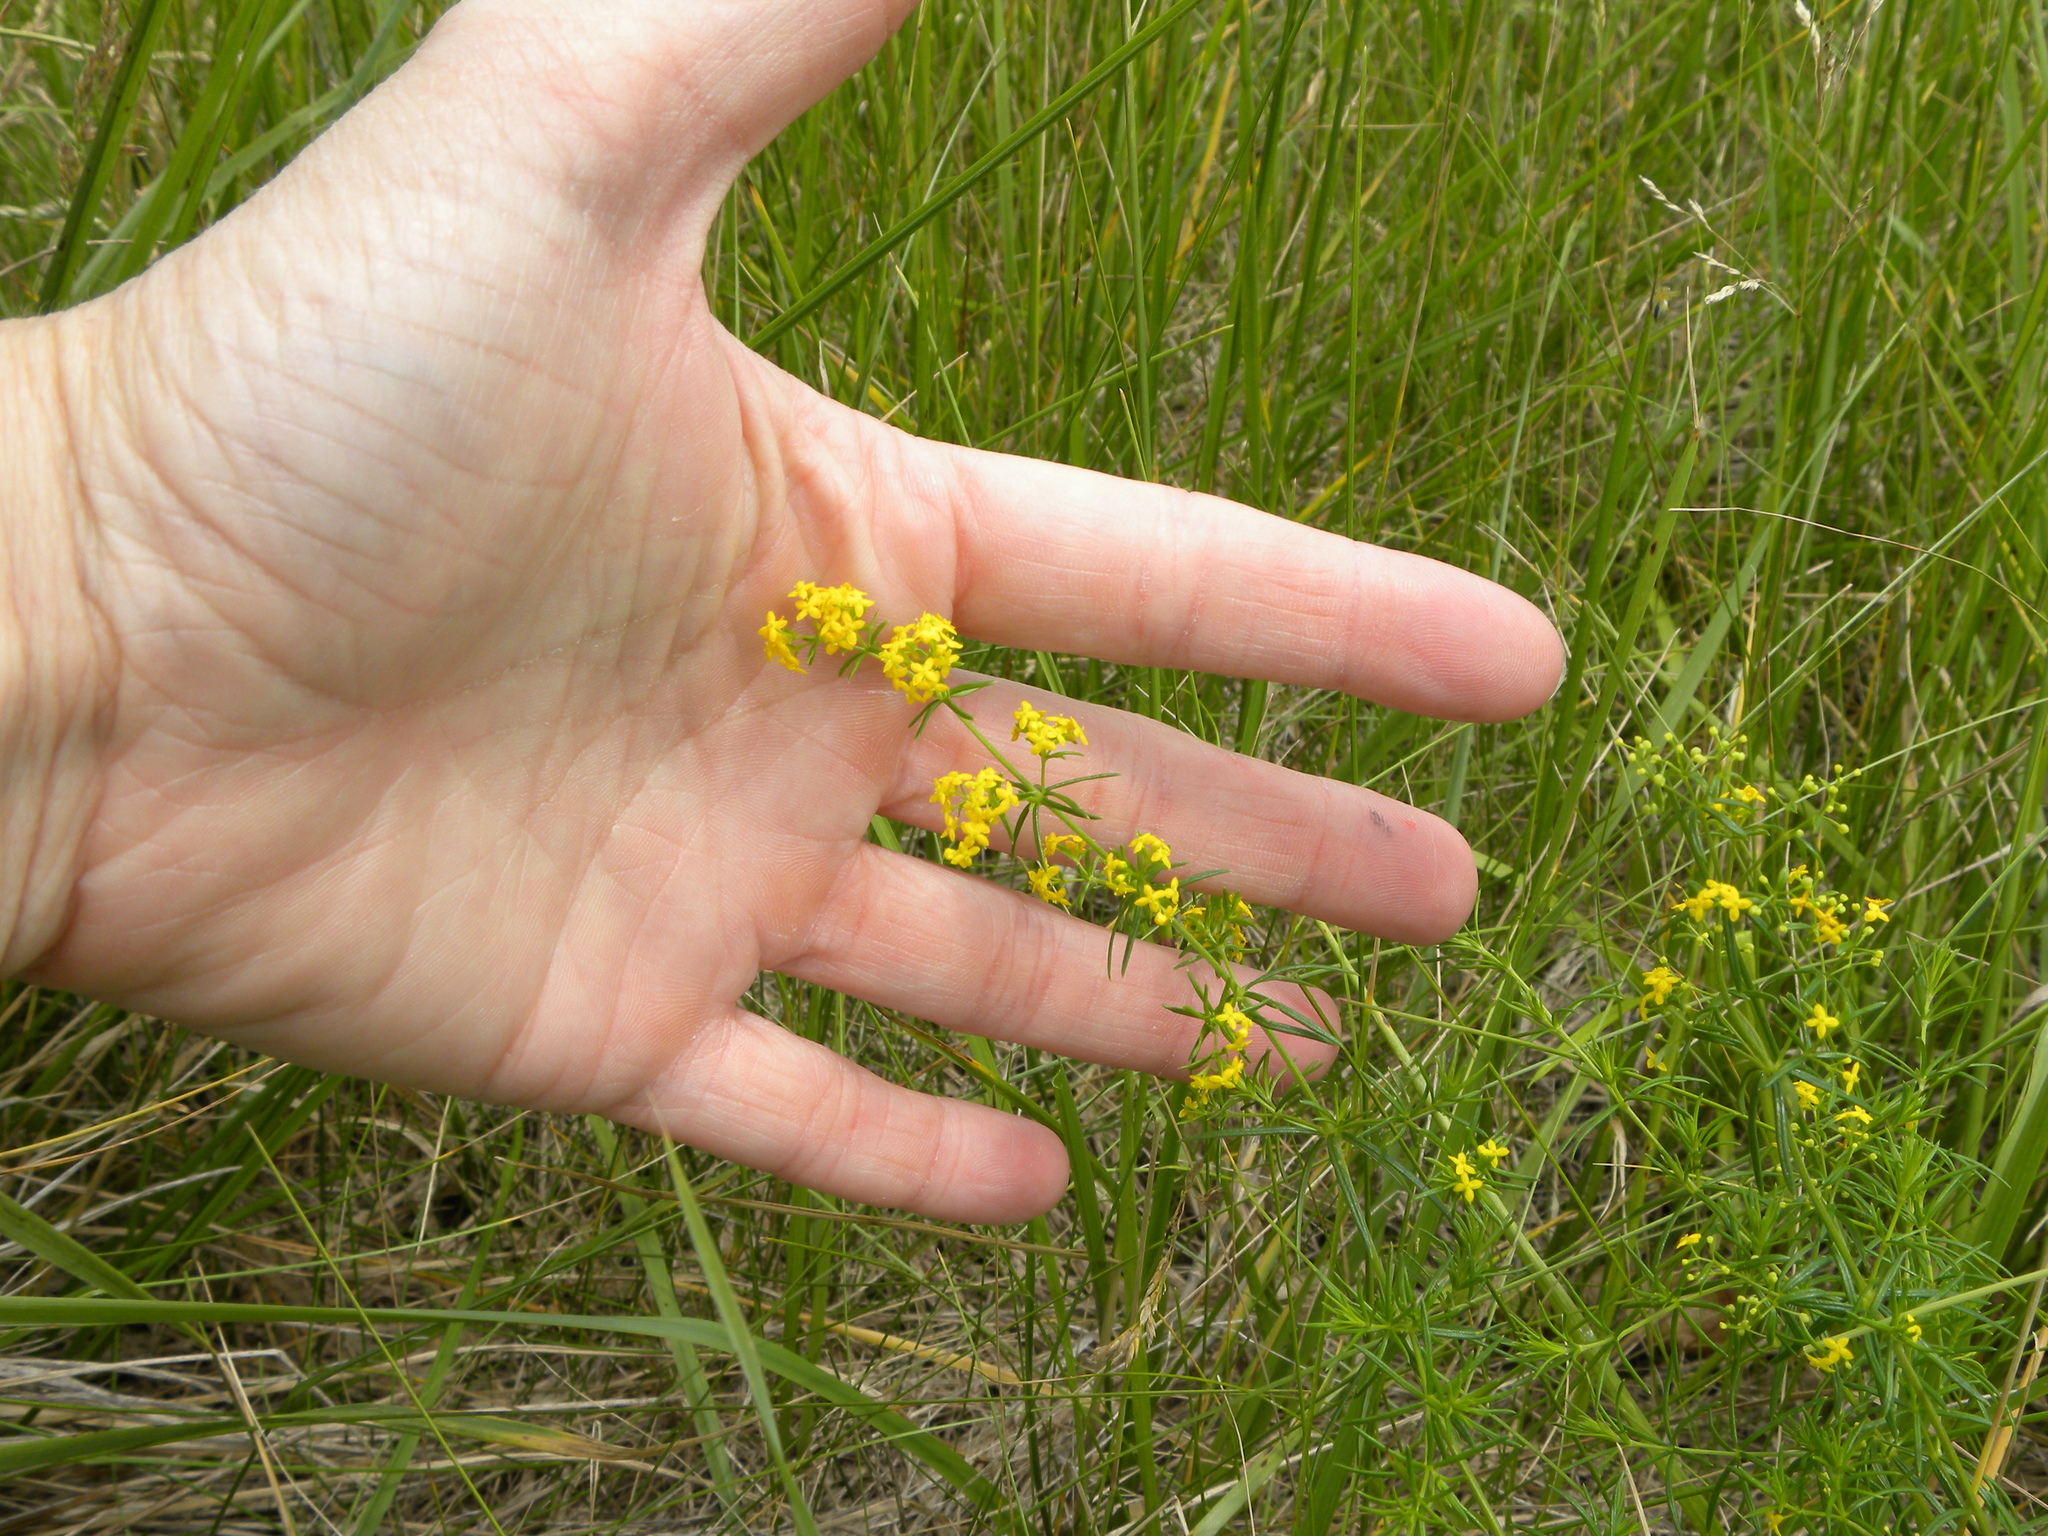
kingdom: Plantae
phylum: Tracheophyta
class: Magnoliopsida
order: Gentianales
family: Rubiaceae
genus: Galium
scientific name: Galium verum
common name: Lady's bedstraw
